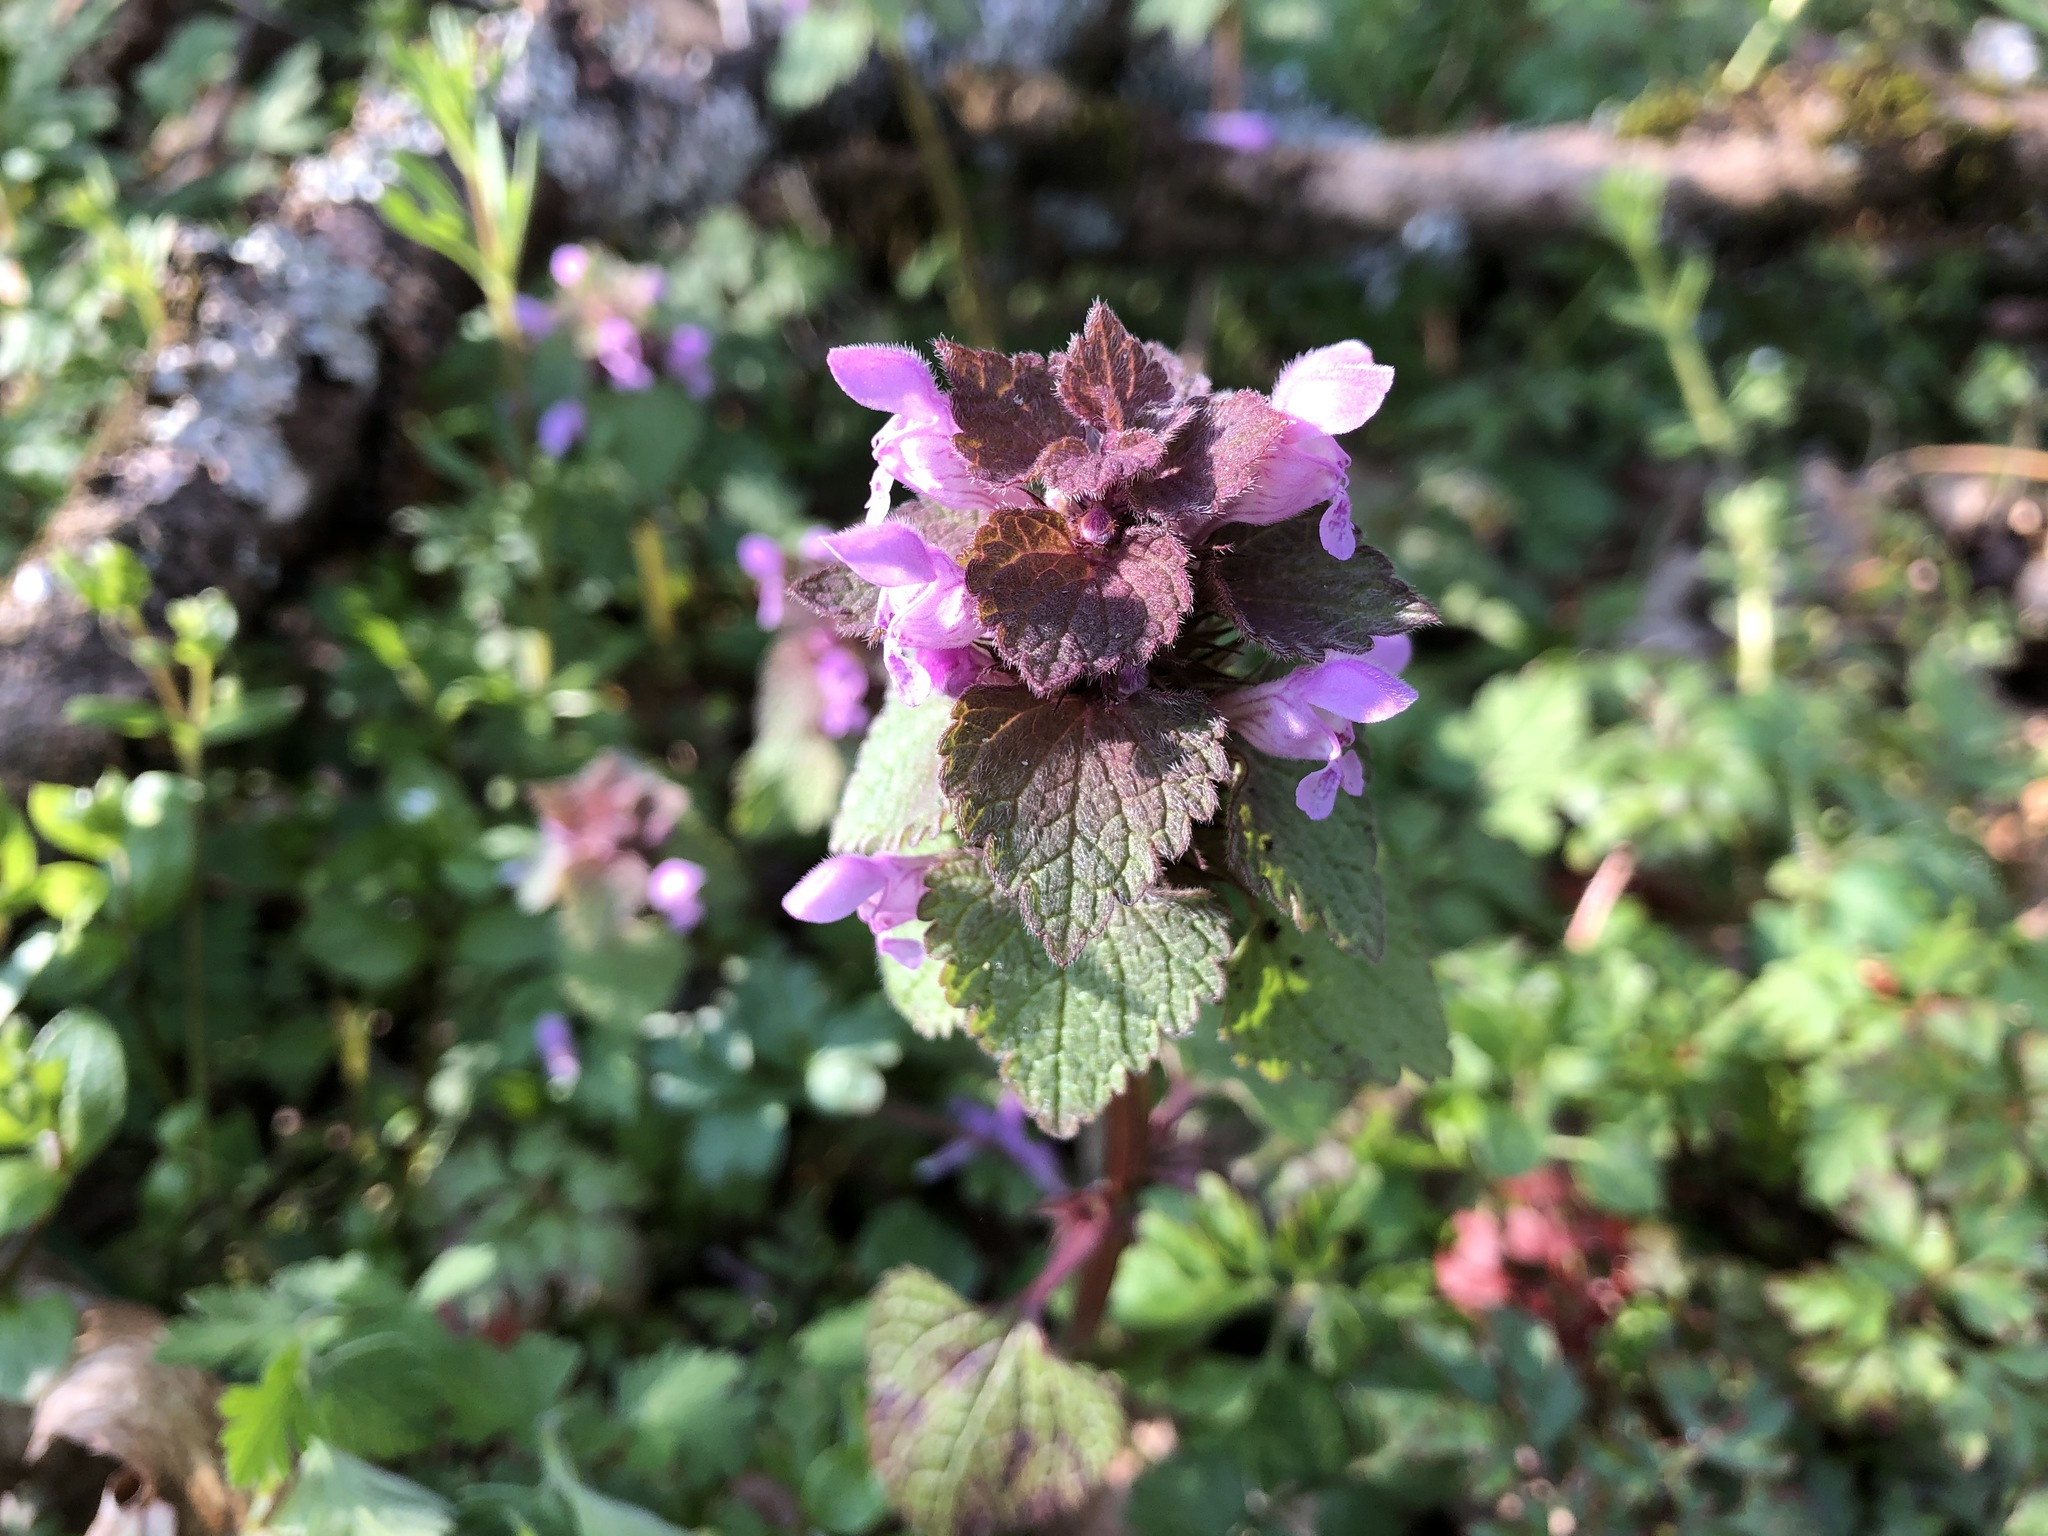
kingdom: Plantae
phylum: Tracheophyta
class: Magnoliopsida
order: Lamiales
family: Lamiaceae
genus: Lamium
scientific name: Lamium purpureum
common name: Red dead-nettle
